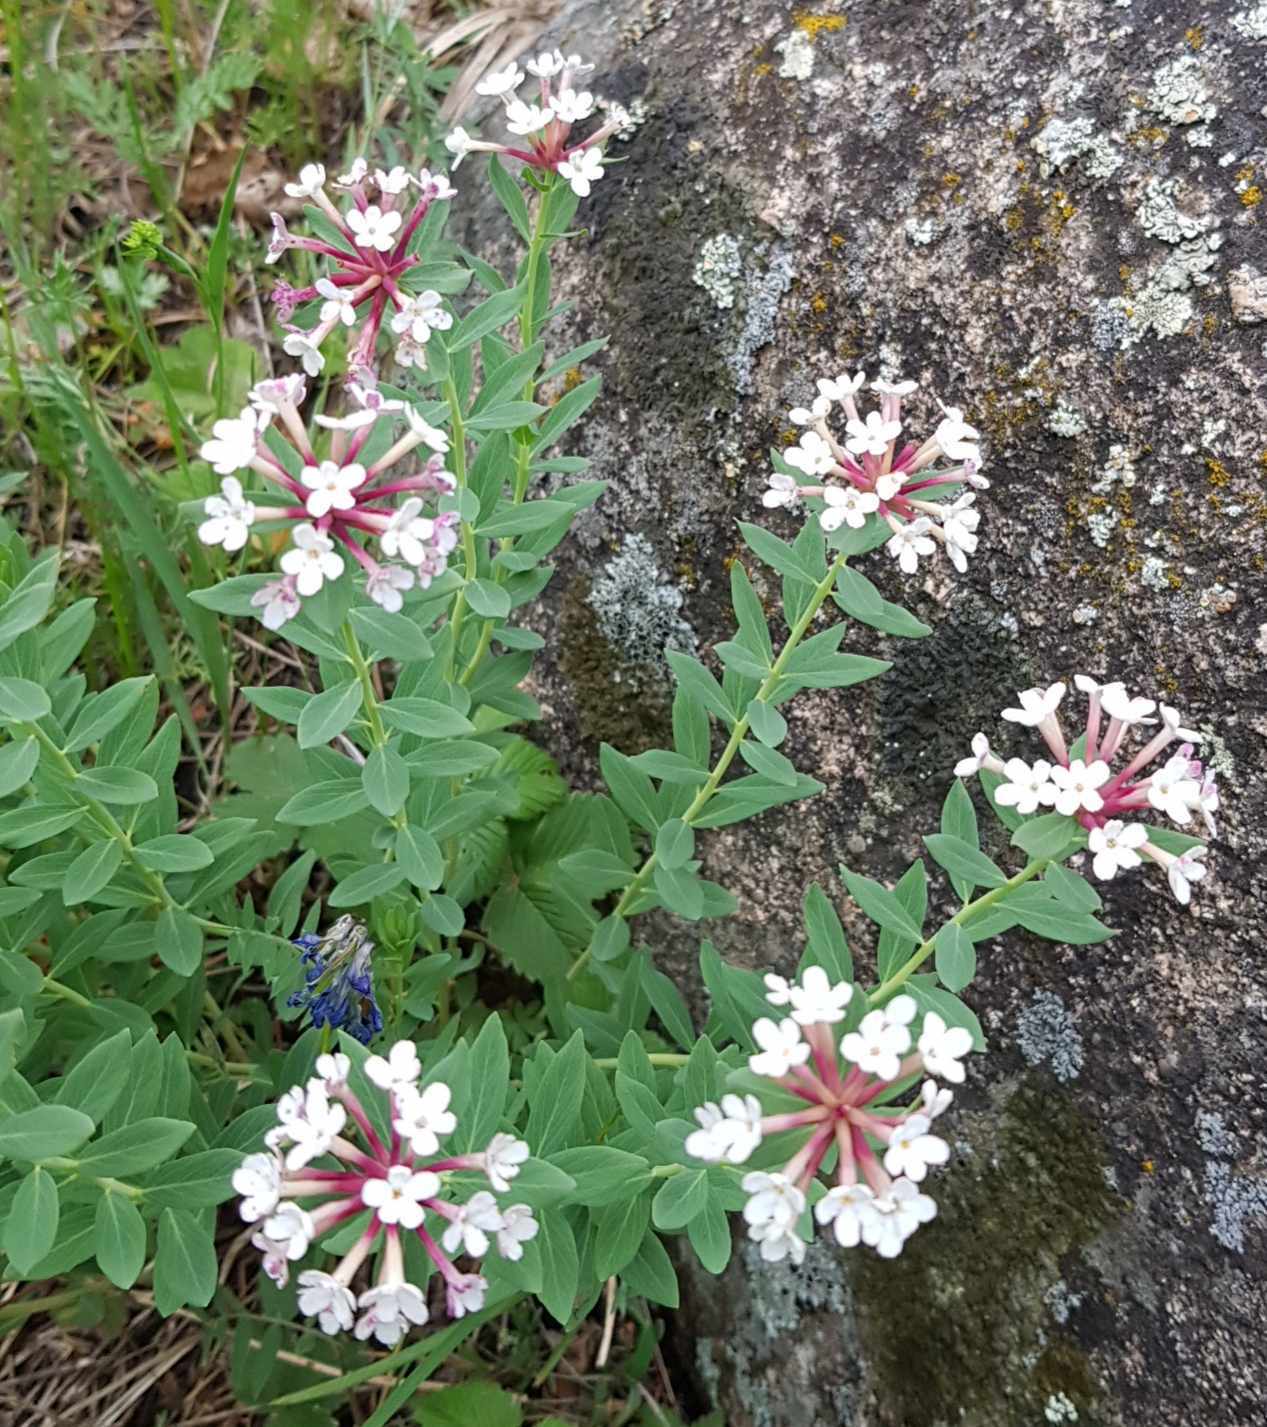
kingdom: Plantae
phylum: Tracheophyta
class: Magnoliopsida
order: Malvales
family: Thymelaeaceae
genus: Stellera
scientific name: Stellera chamaejasme
